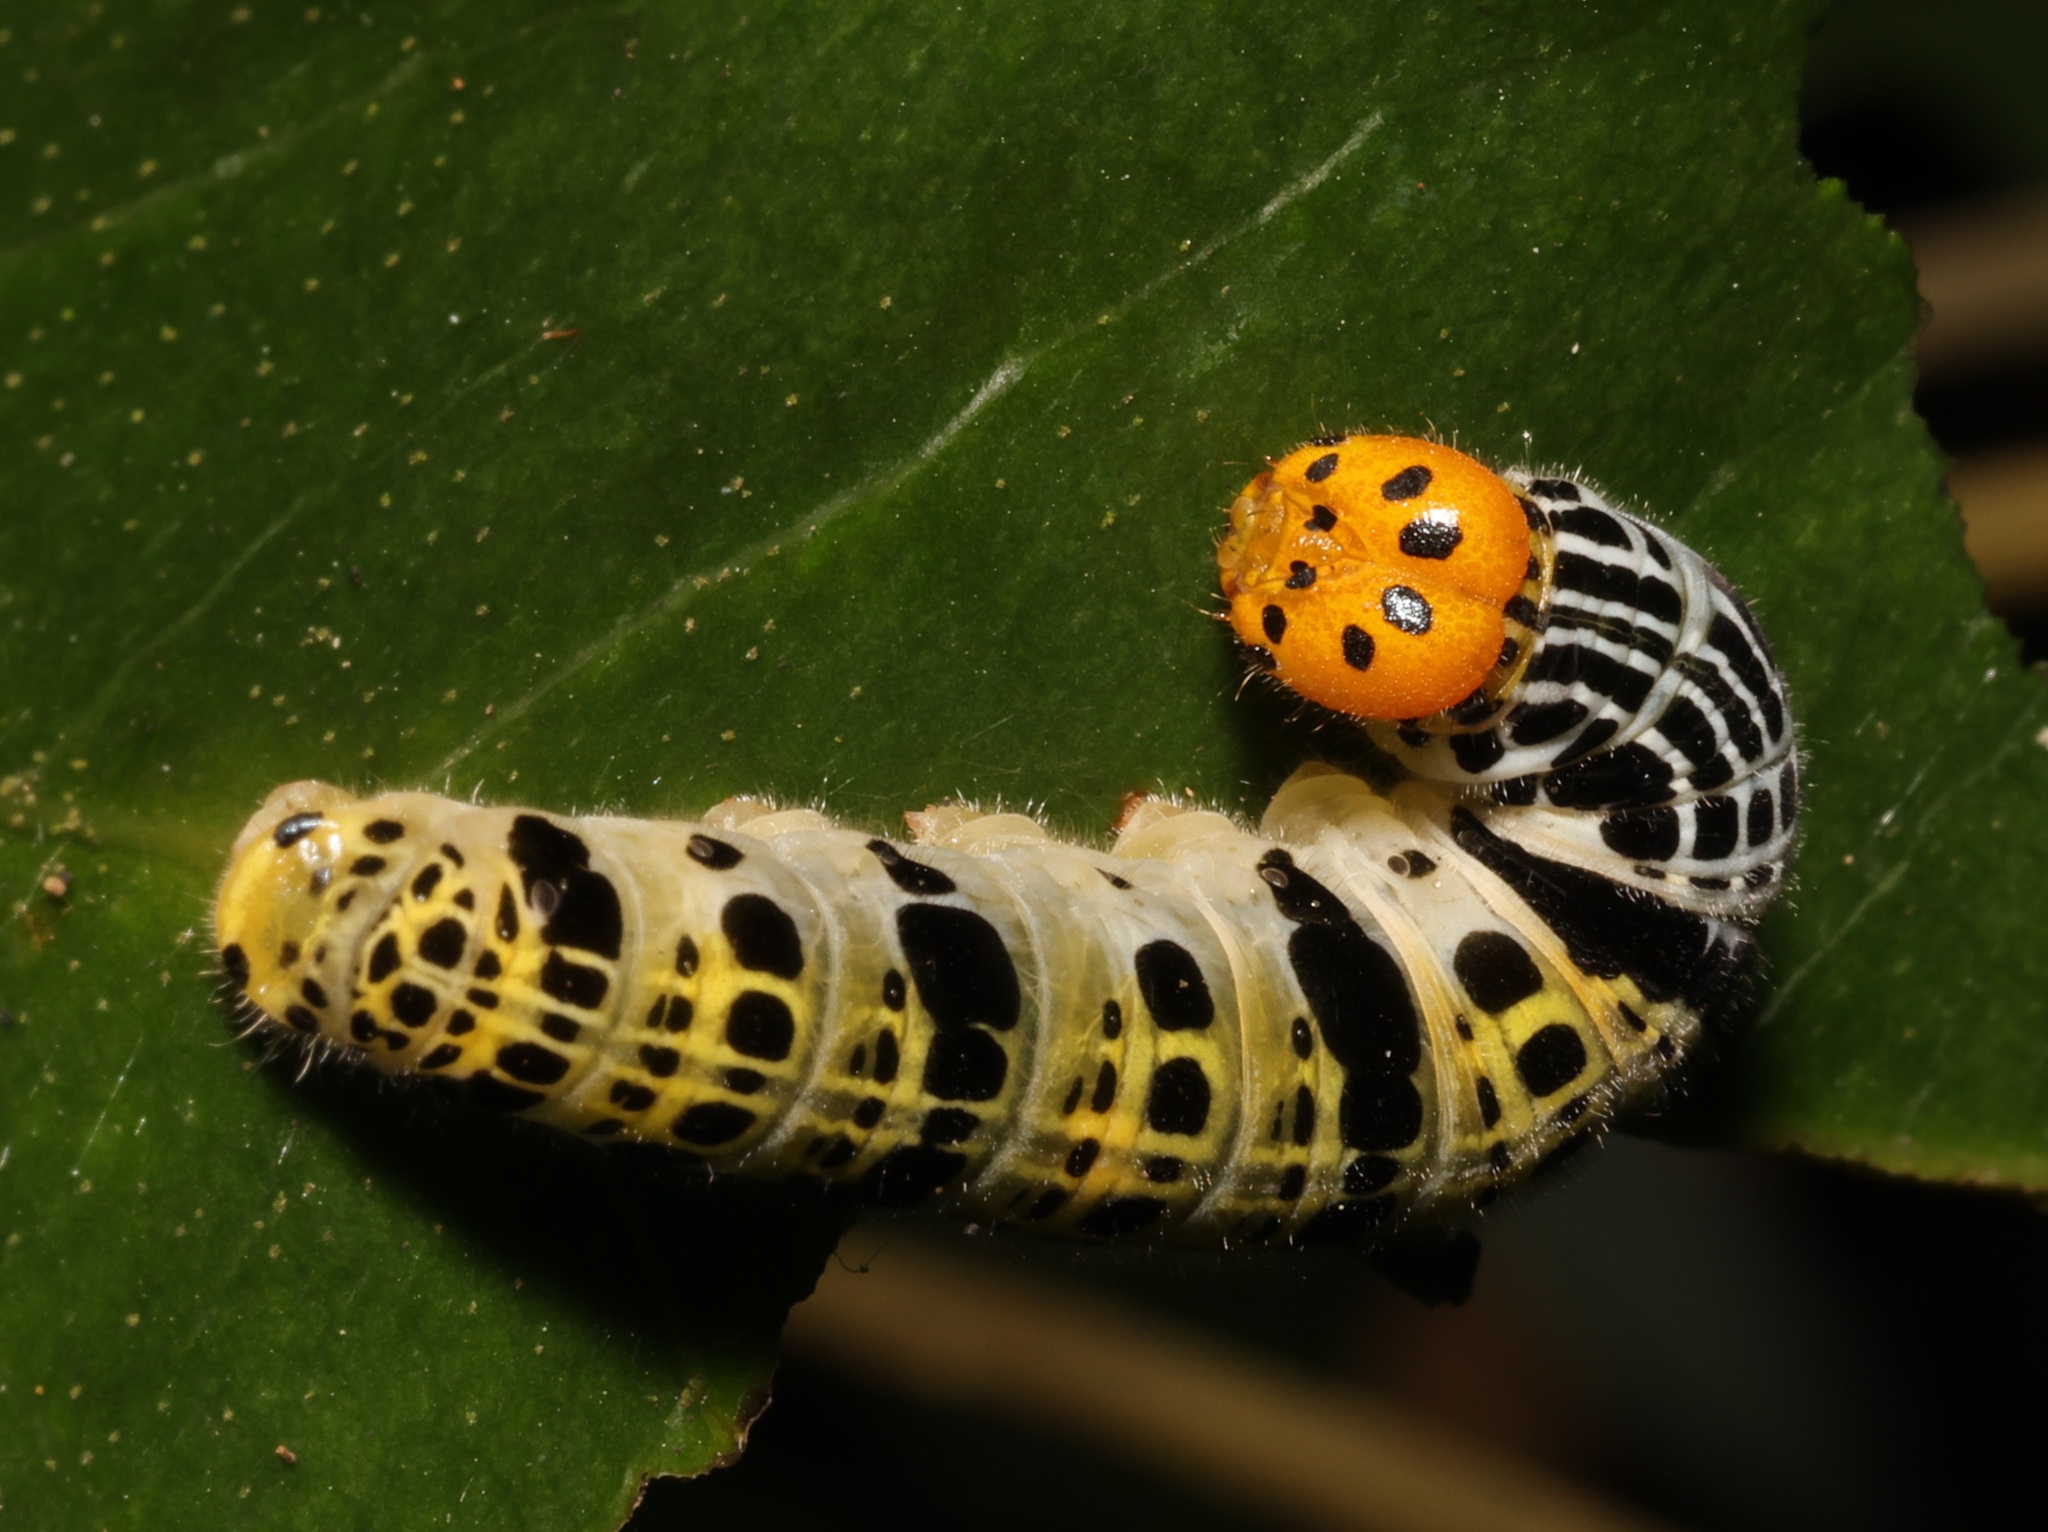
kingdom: Animalia
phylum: Arthropoda
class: Insecta
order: Lepidoptera
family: Hesperiidae
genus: Bibasis
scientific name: Bibasis gomata
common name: Pale green awlet
